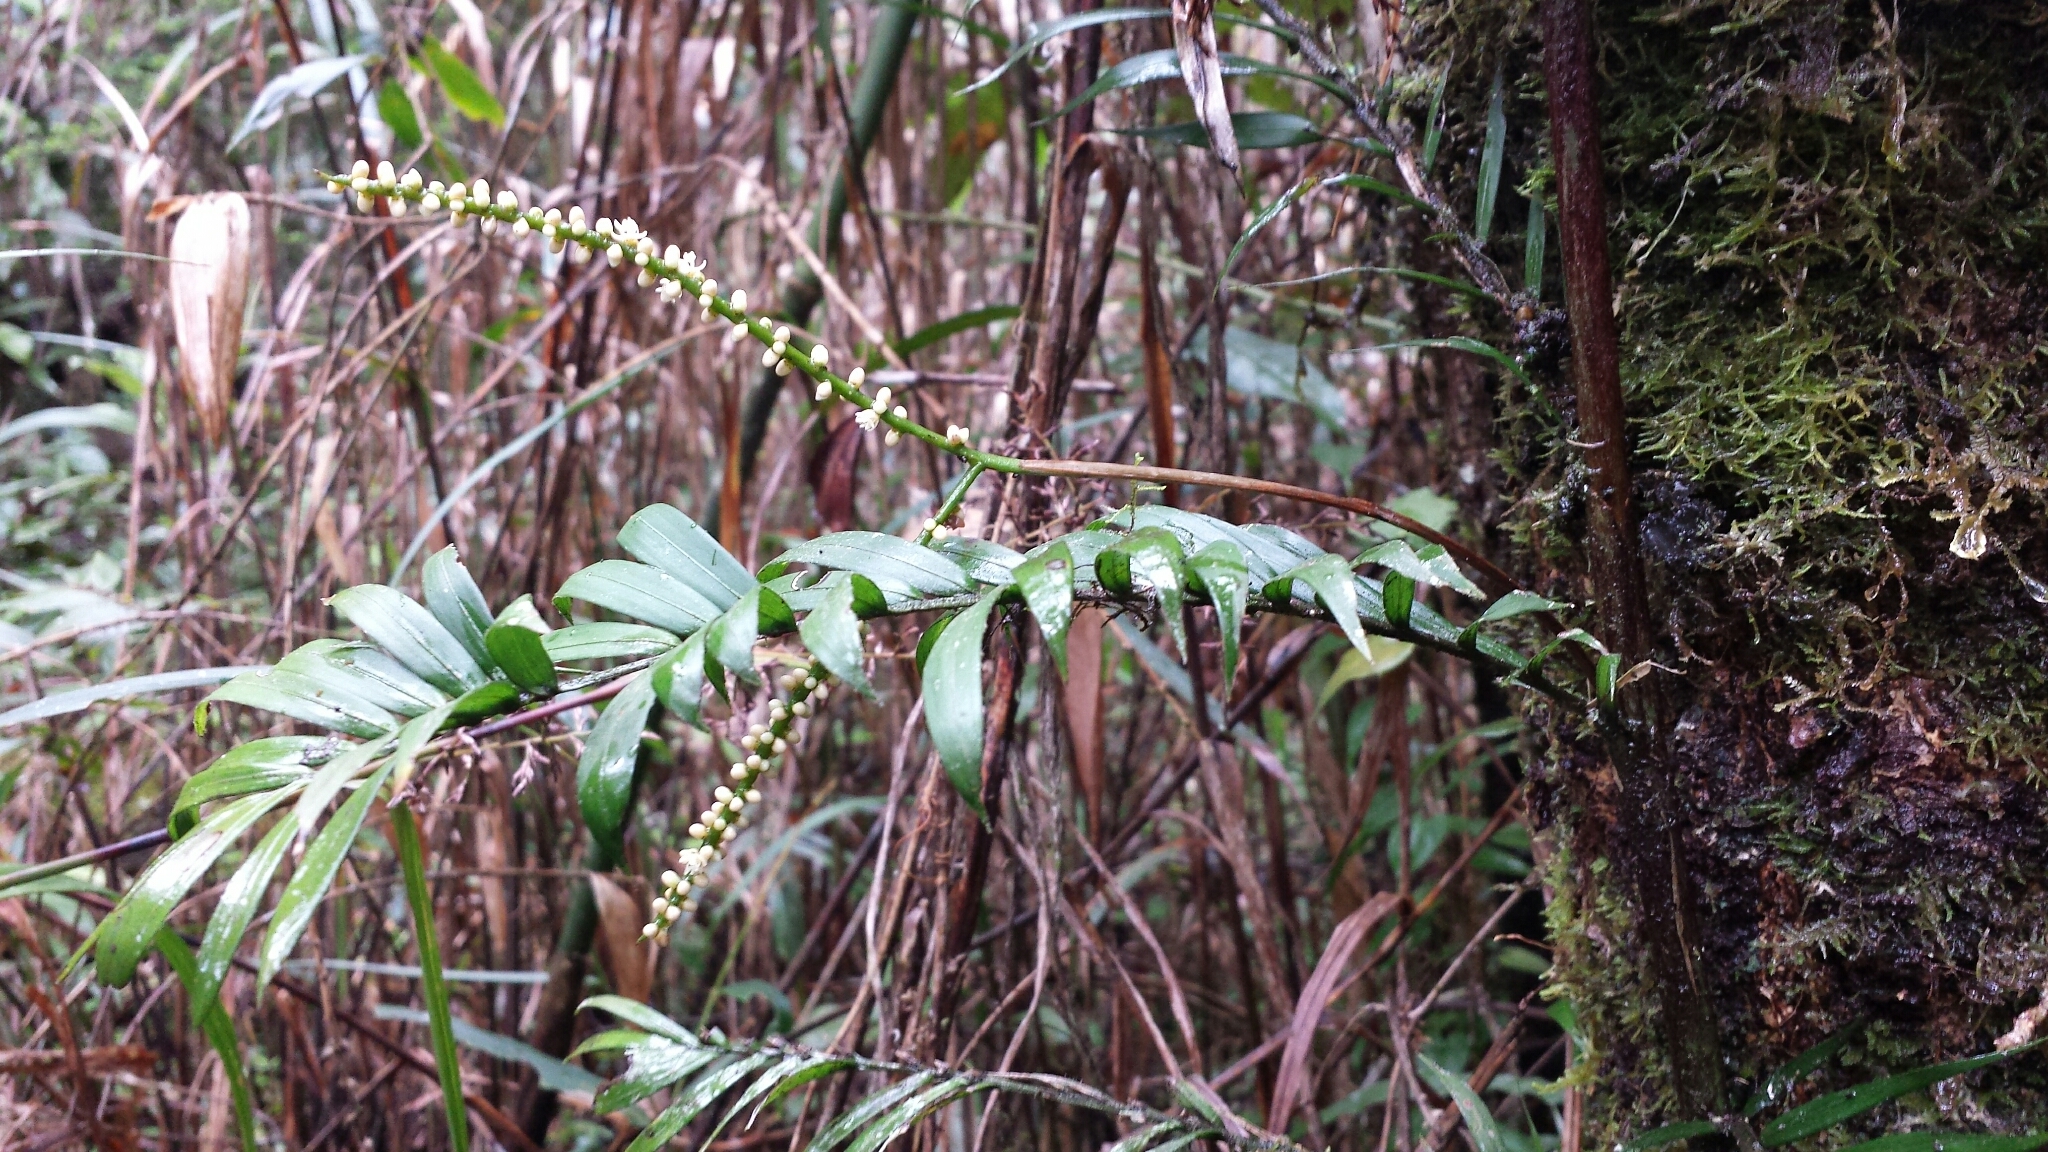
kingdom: Plantae
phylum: Tracheophyta
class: Liliopsida
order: Arecales
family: Arecaceae
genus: Dypsis
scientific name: Dypsis concinna
